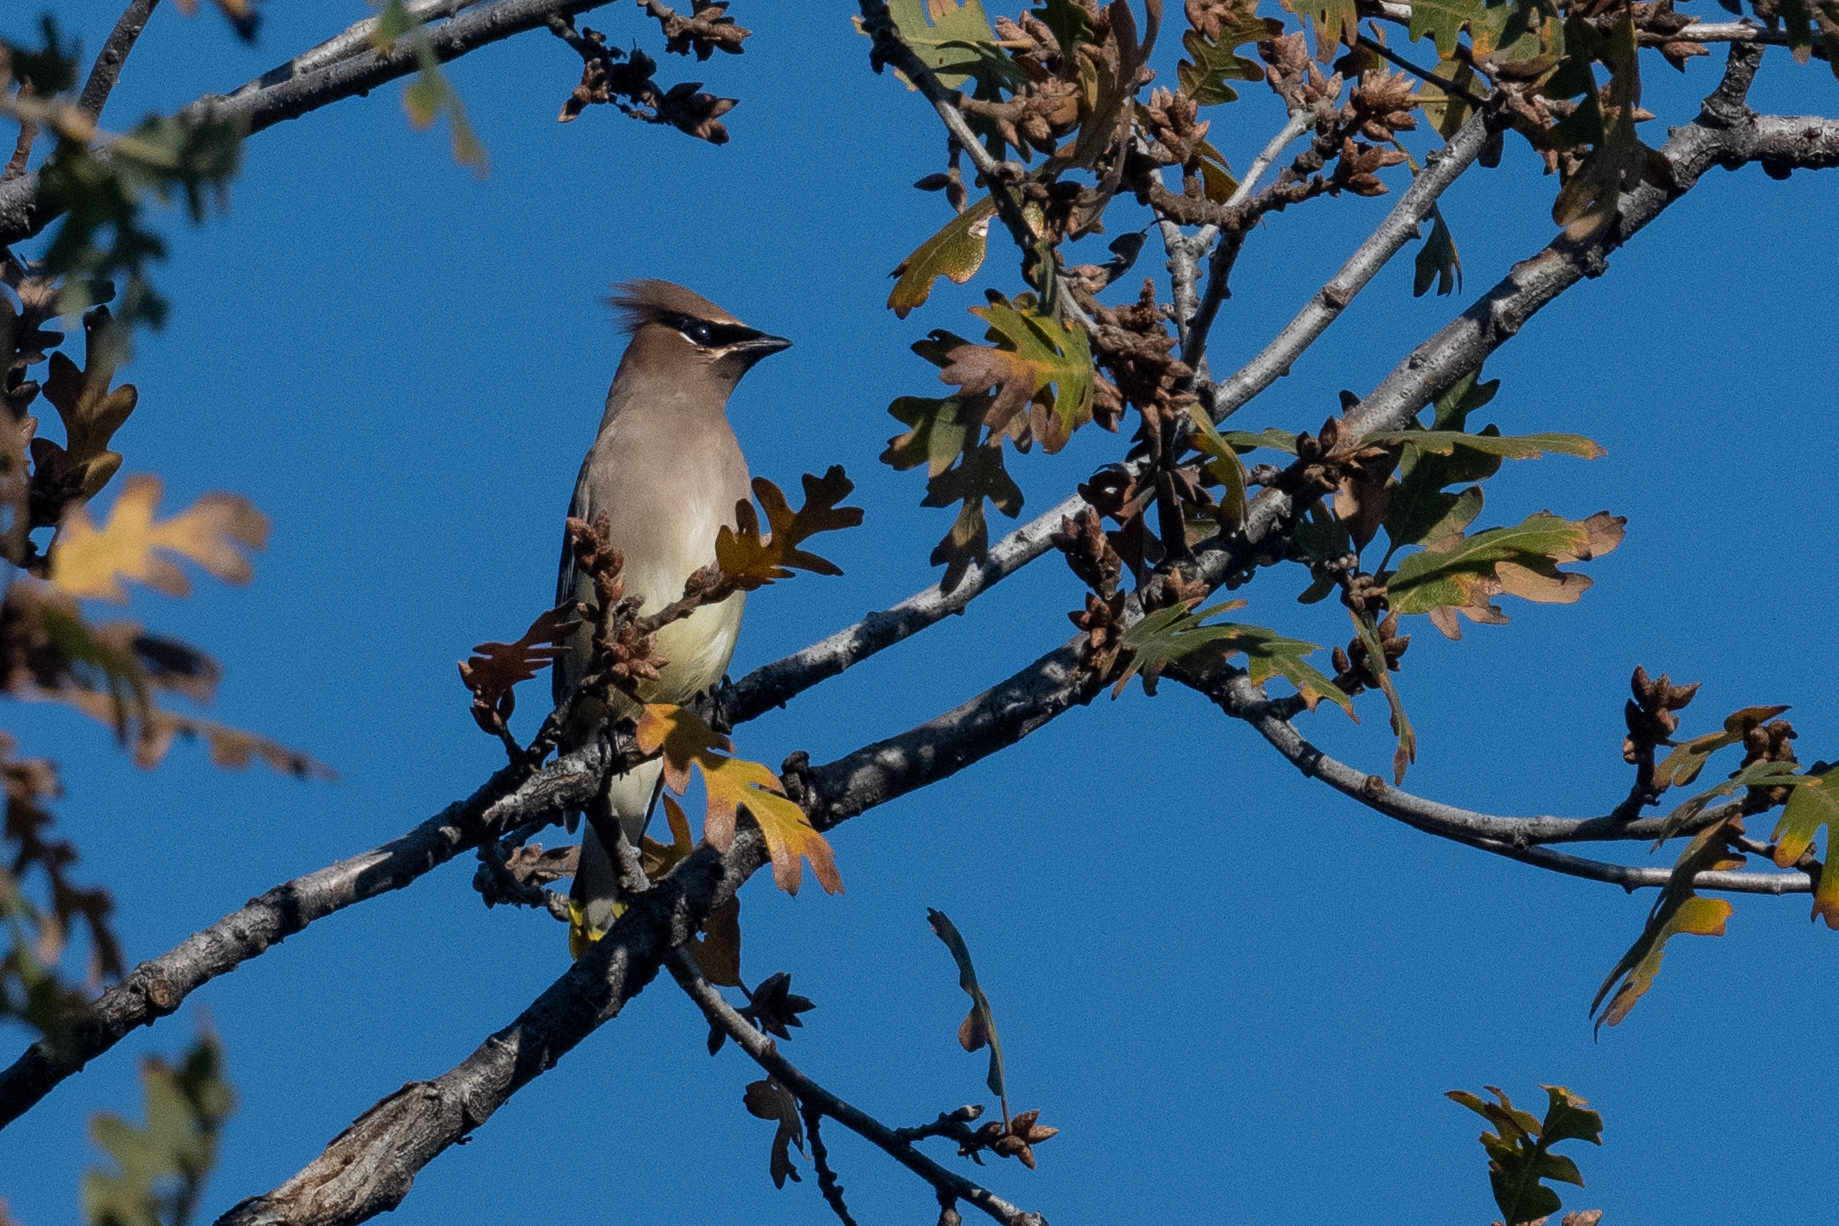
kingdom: Animalia
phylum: Chordata
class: Aves
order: Passeriformes
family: Bombycillidae
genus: Bombycilla
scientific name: Bombycilla cedrorum
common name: Cedar waxwing
